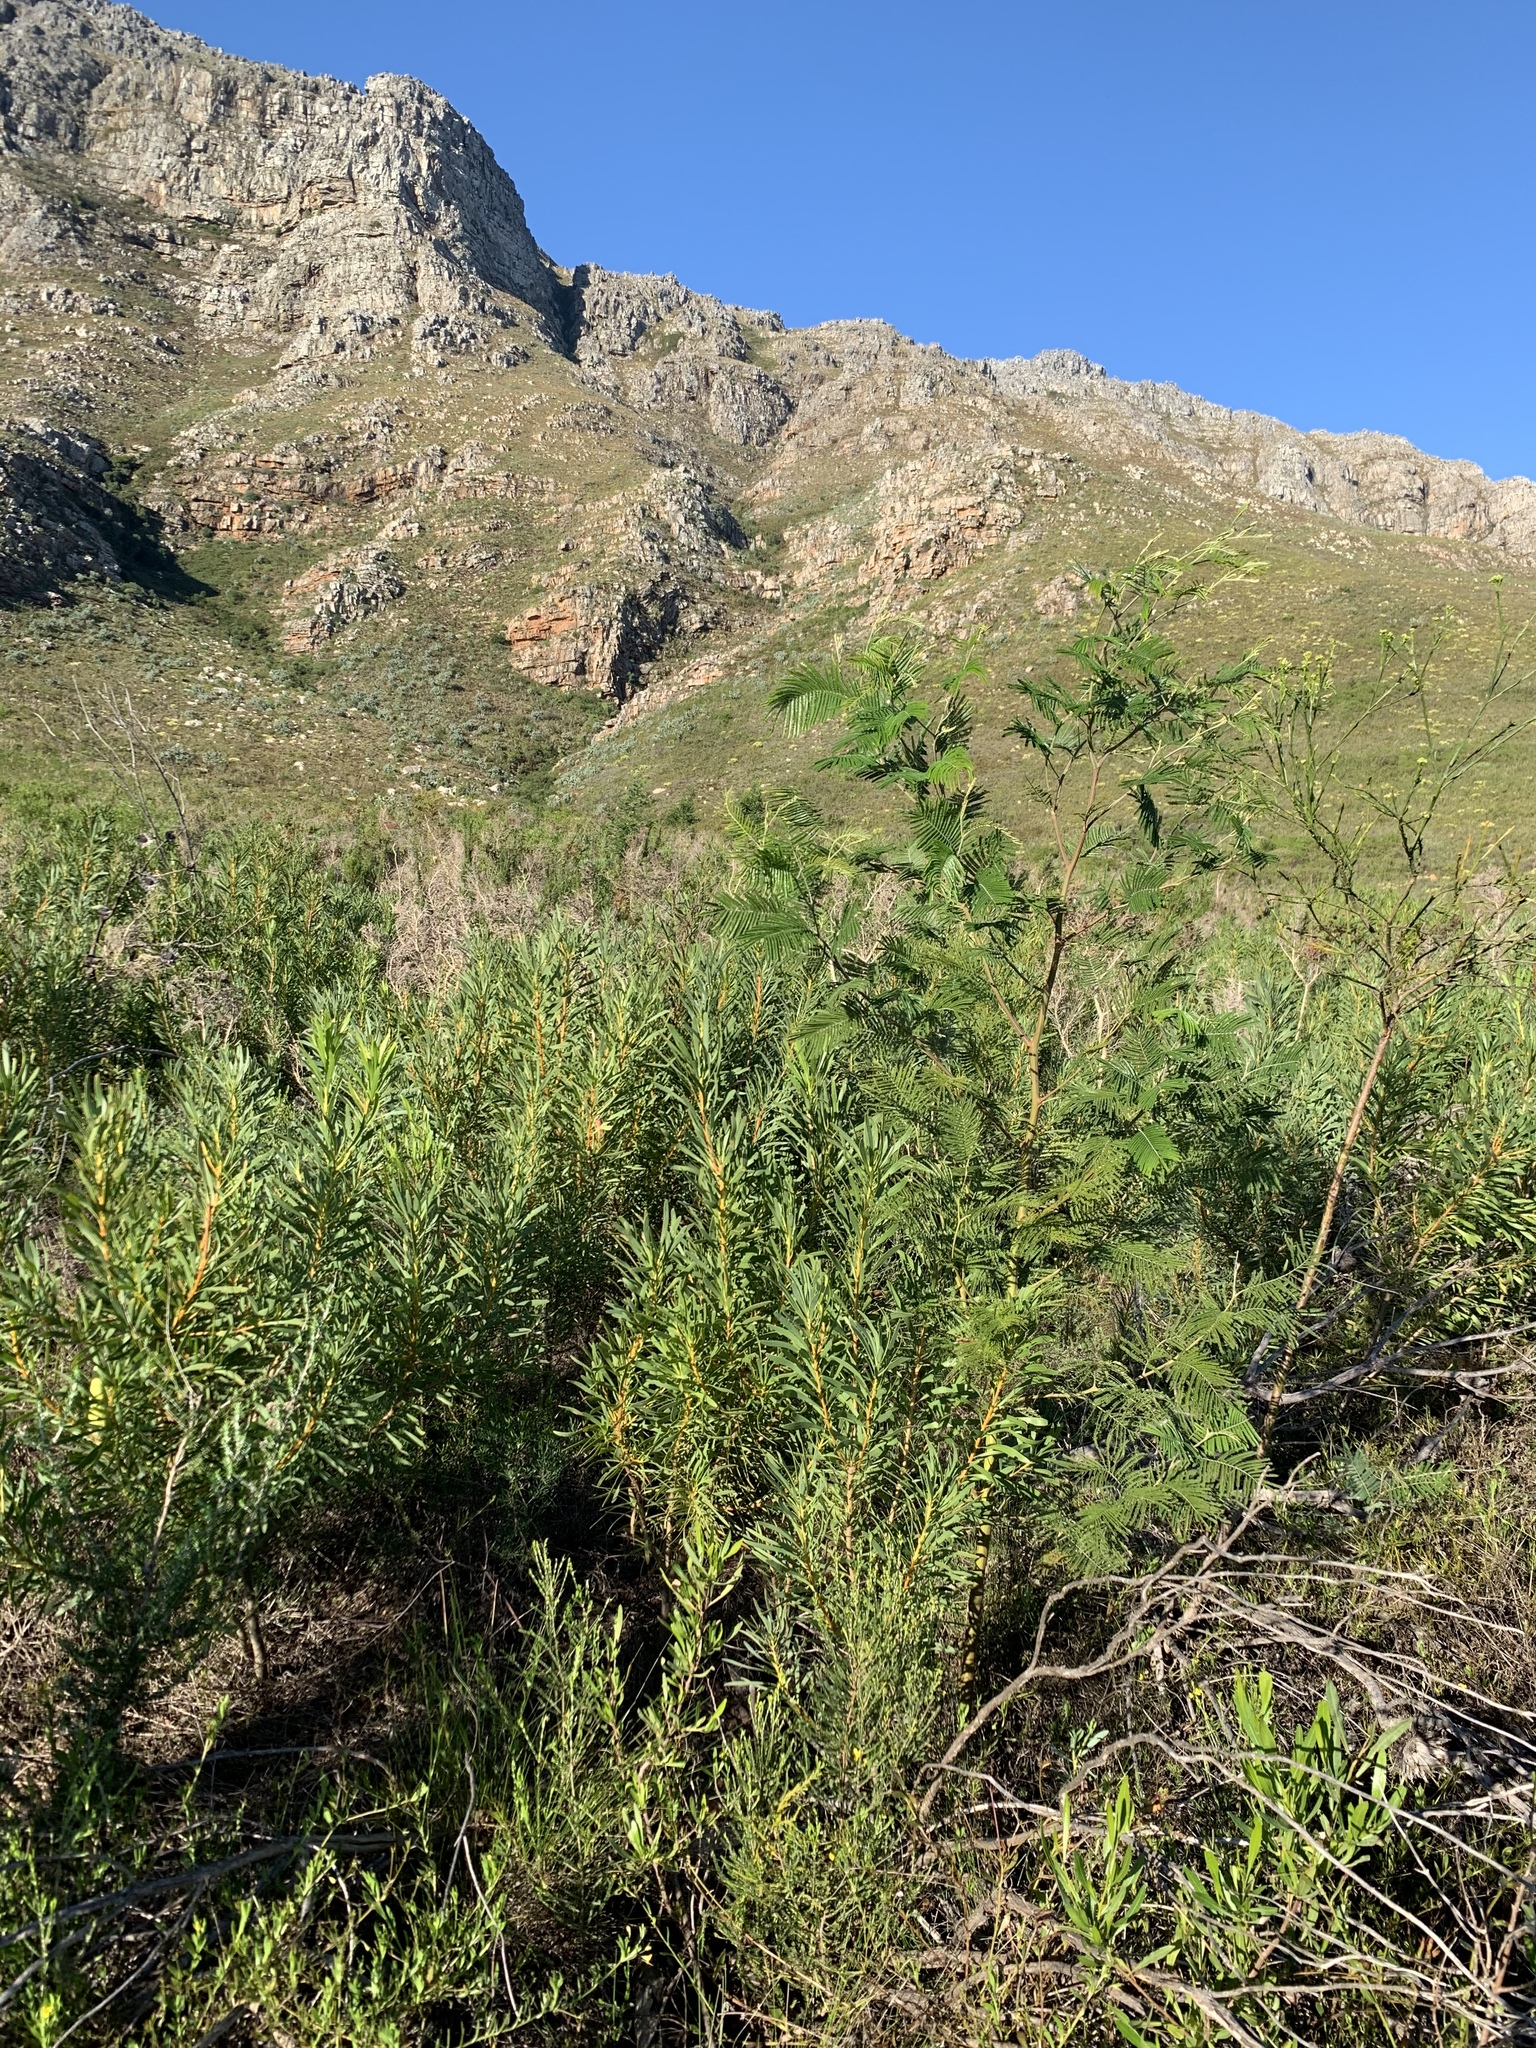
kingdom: Plantae
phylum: Tracheophyta
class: Magnoliopsida
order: Fabales
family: Fabaceae
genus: Acacia
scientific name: Acacia mearnsii
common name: Black wattle
